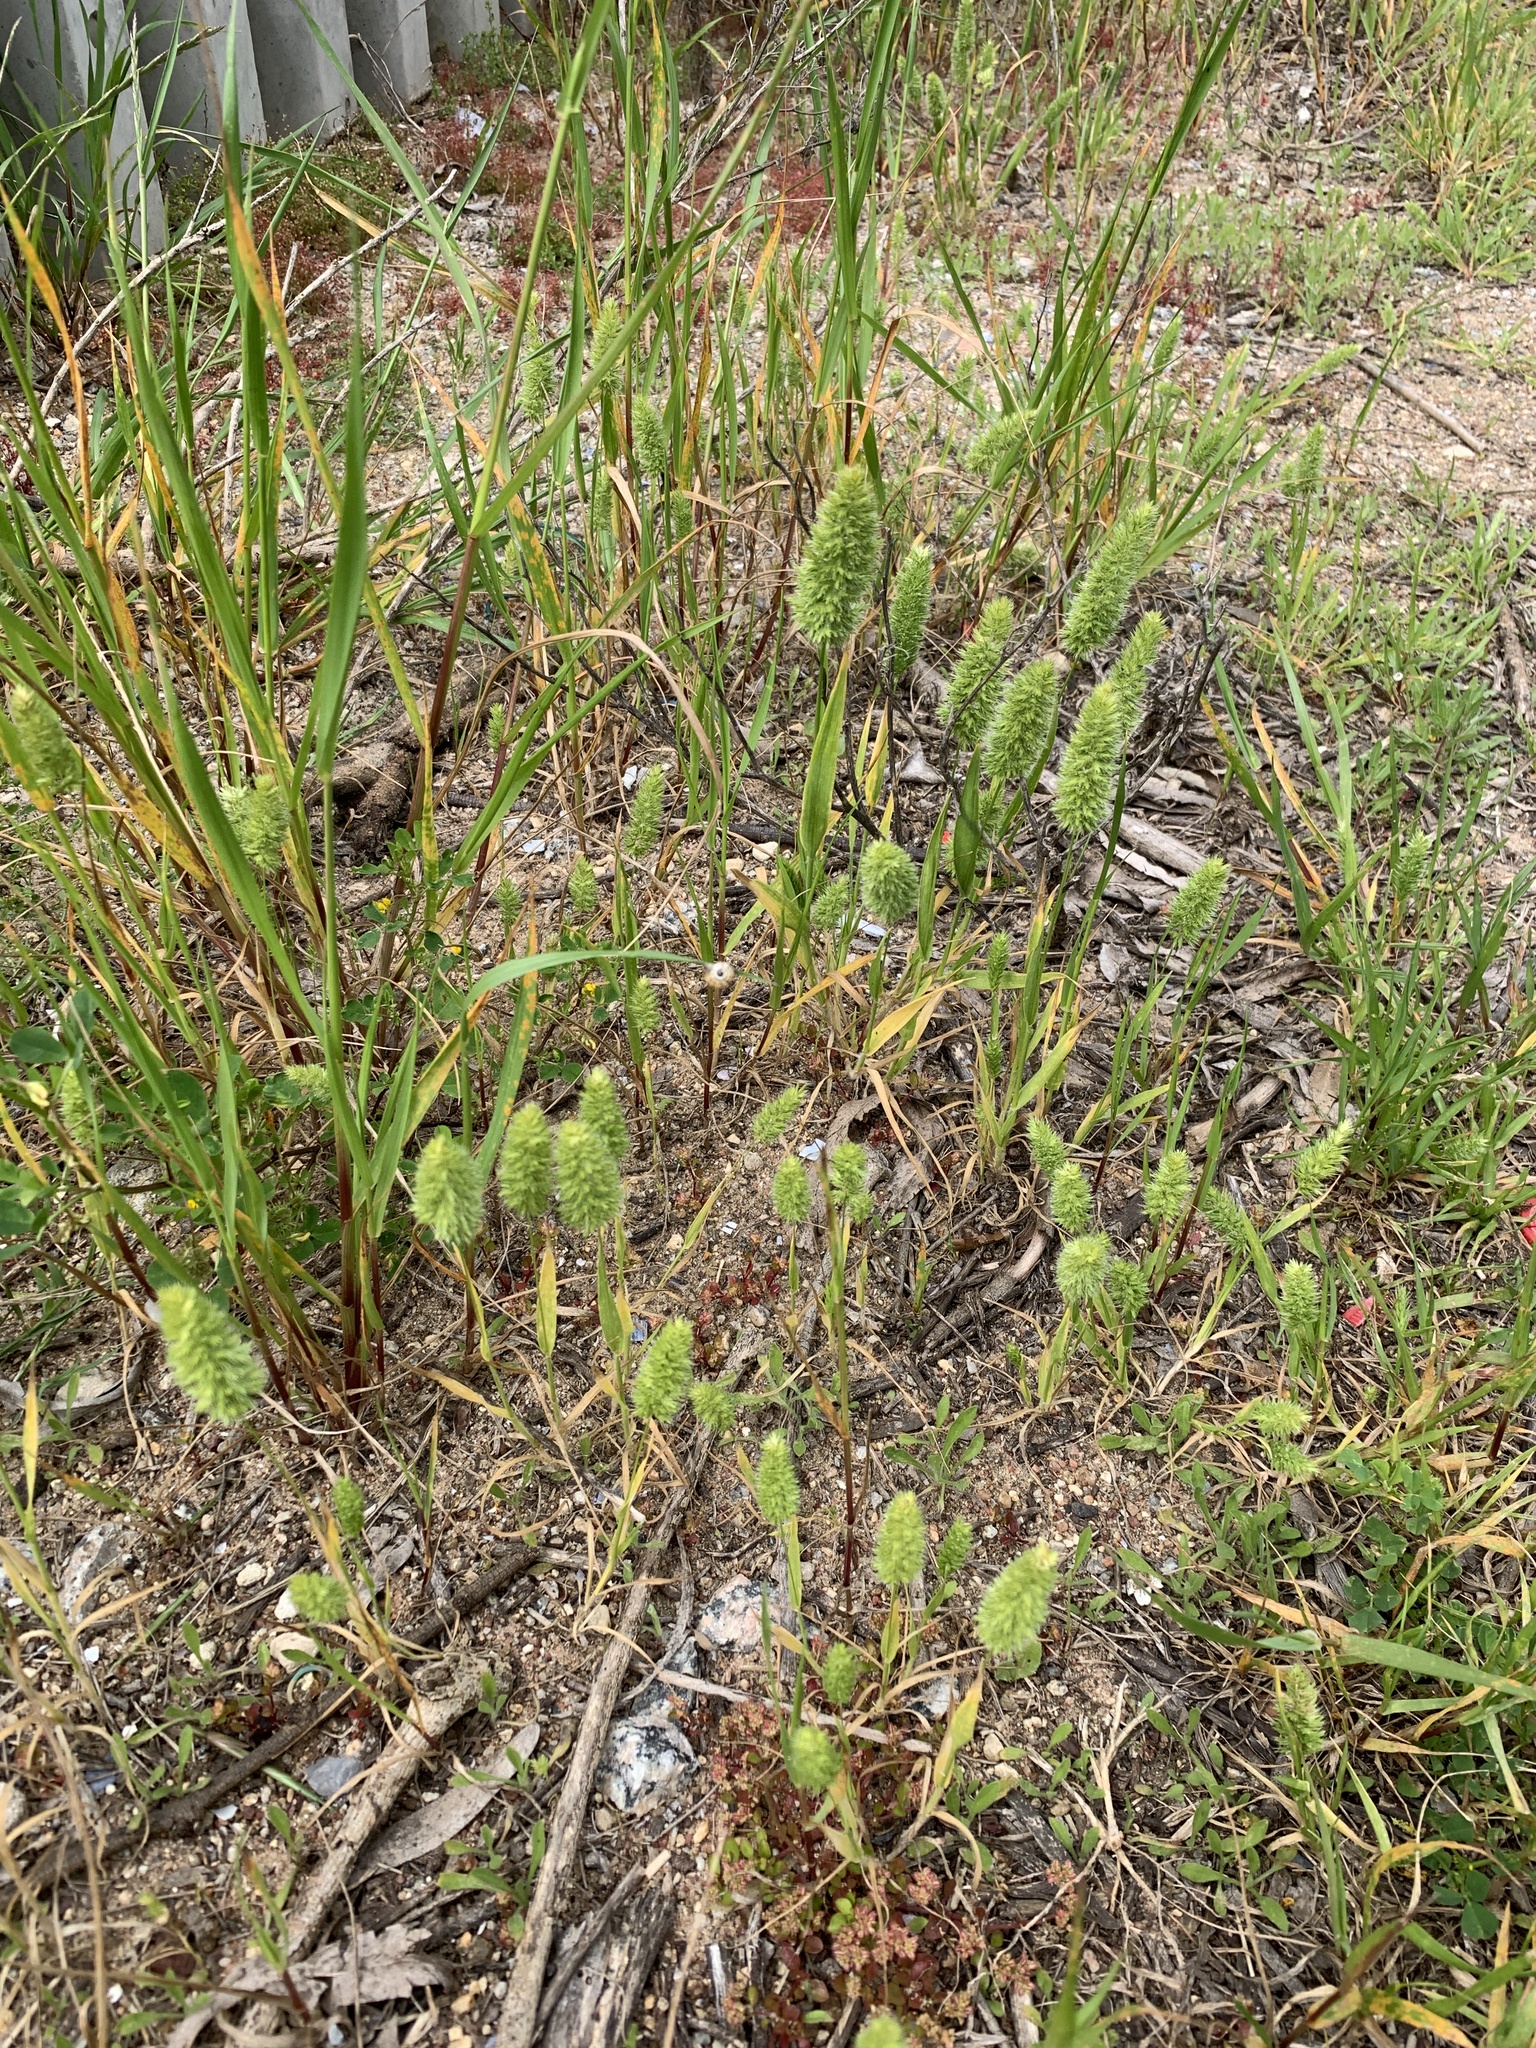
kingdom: Plantae
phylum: Tracheophyta
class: Liliopsida
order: Poales
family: Poaceae
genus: Rostraria
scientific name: Rostraria cristata
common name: Mediterranean hair-grass
